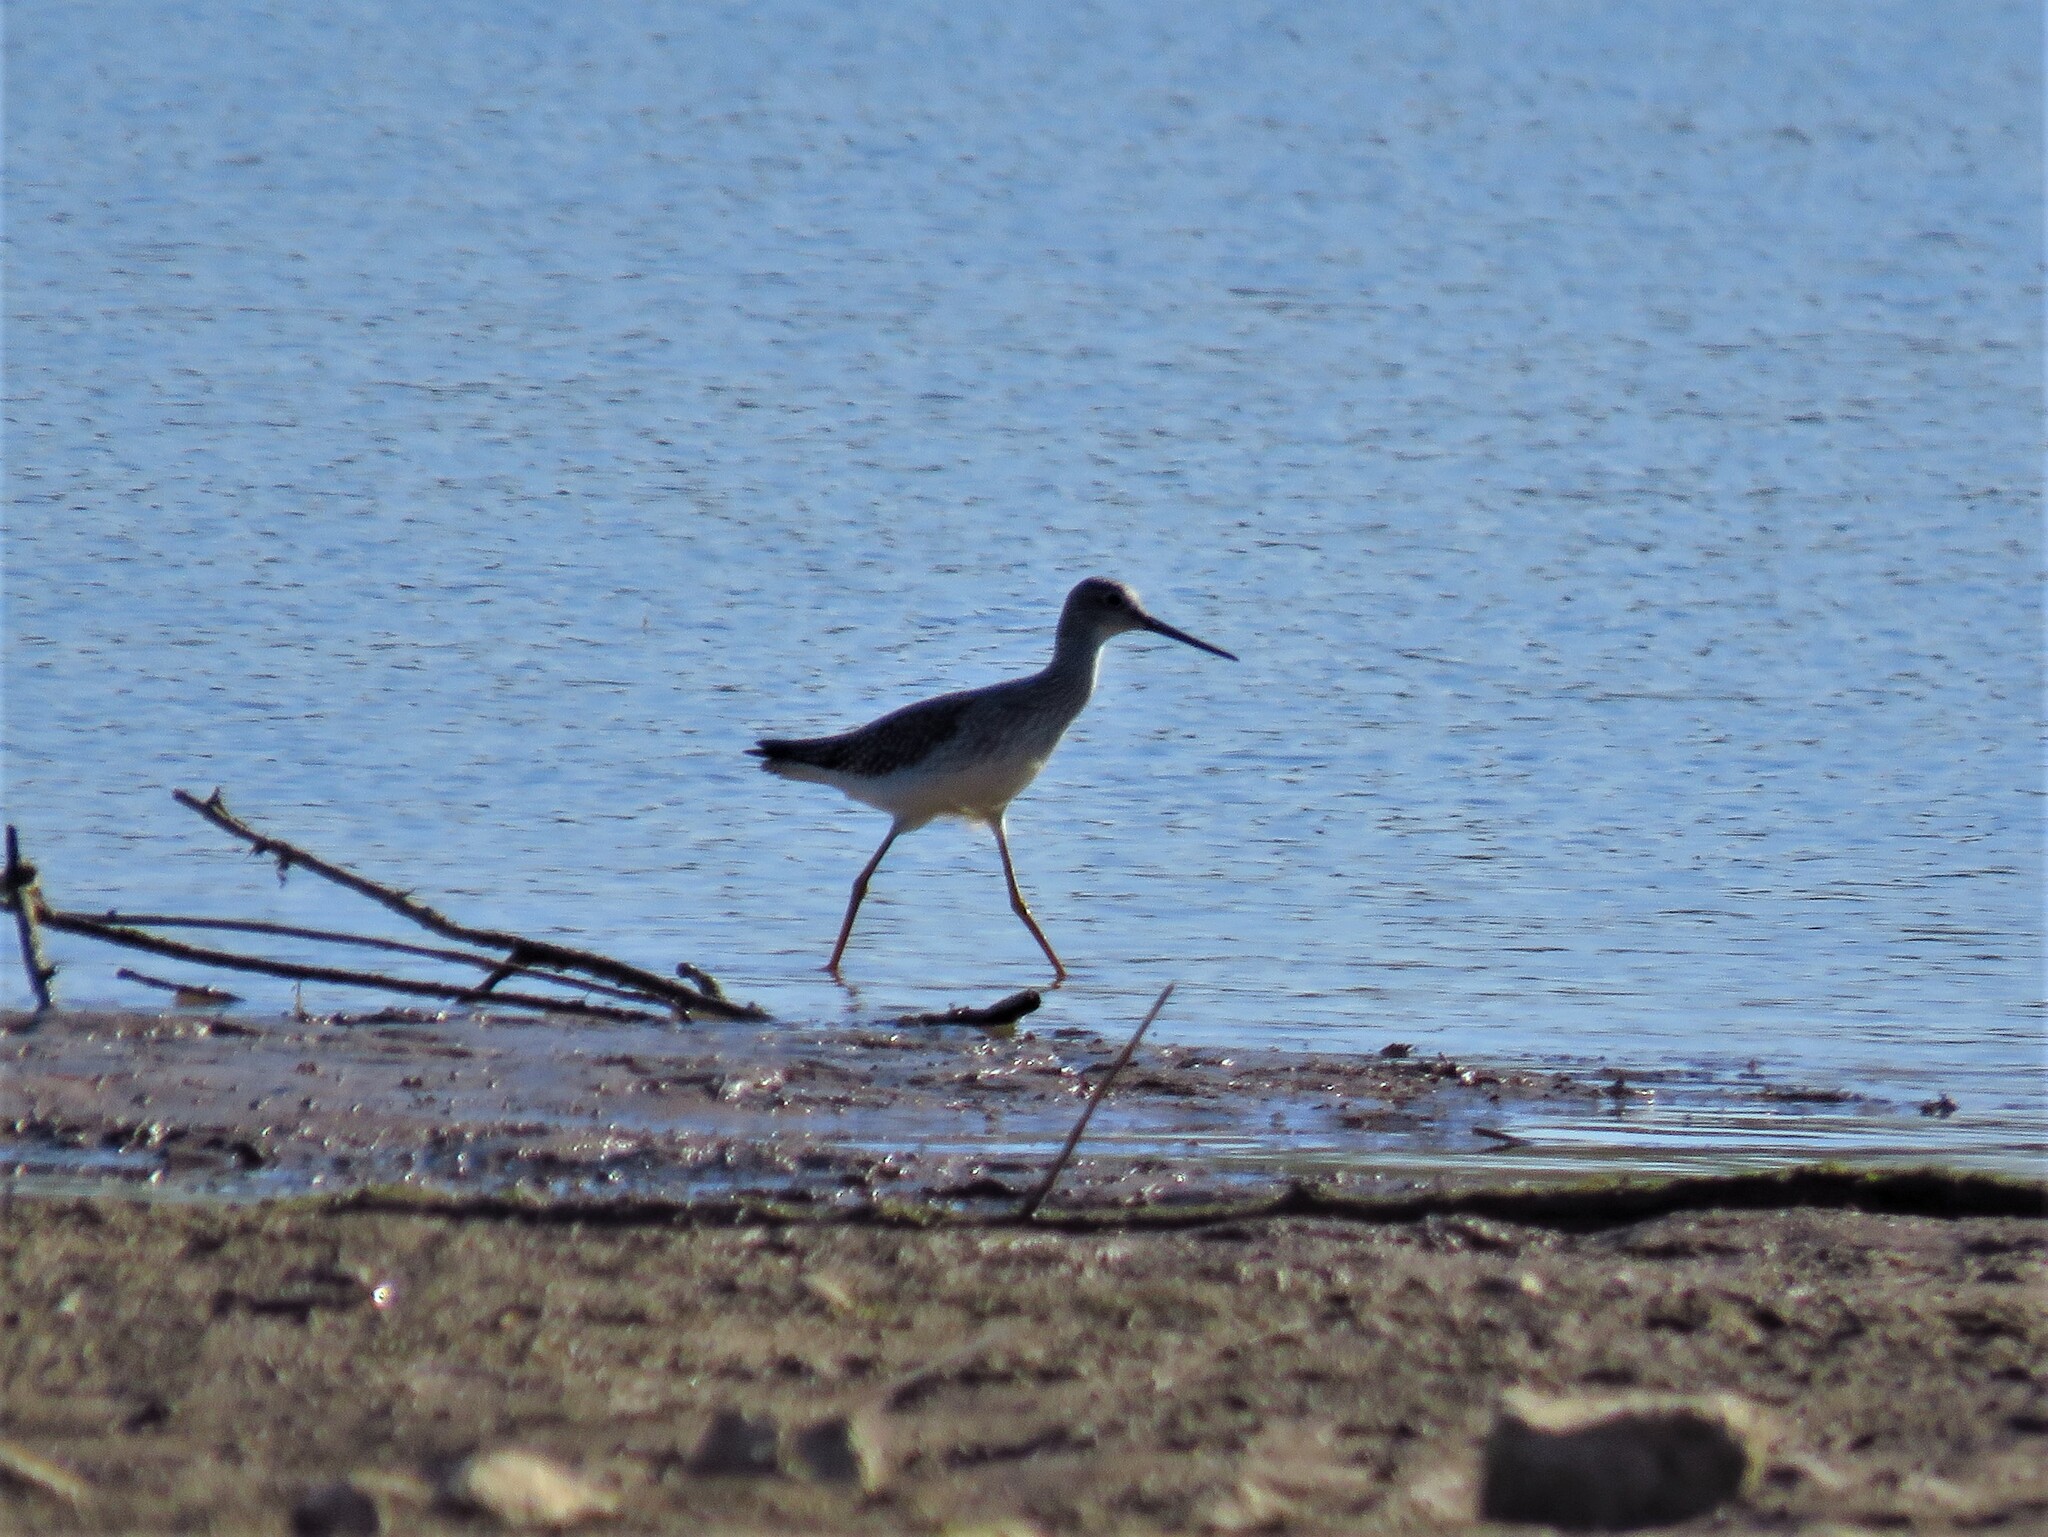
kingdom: Animalia
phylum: Chordata
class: Aves
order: Charadriiformes
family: Scolopacidae
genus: Tringa
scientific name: Tringa melanoleuca
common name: Greater yellowlegs
